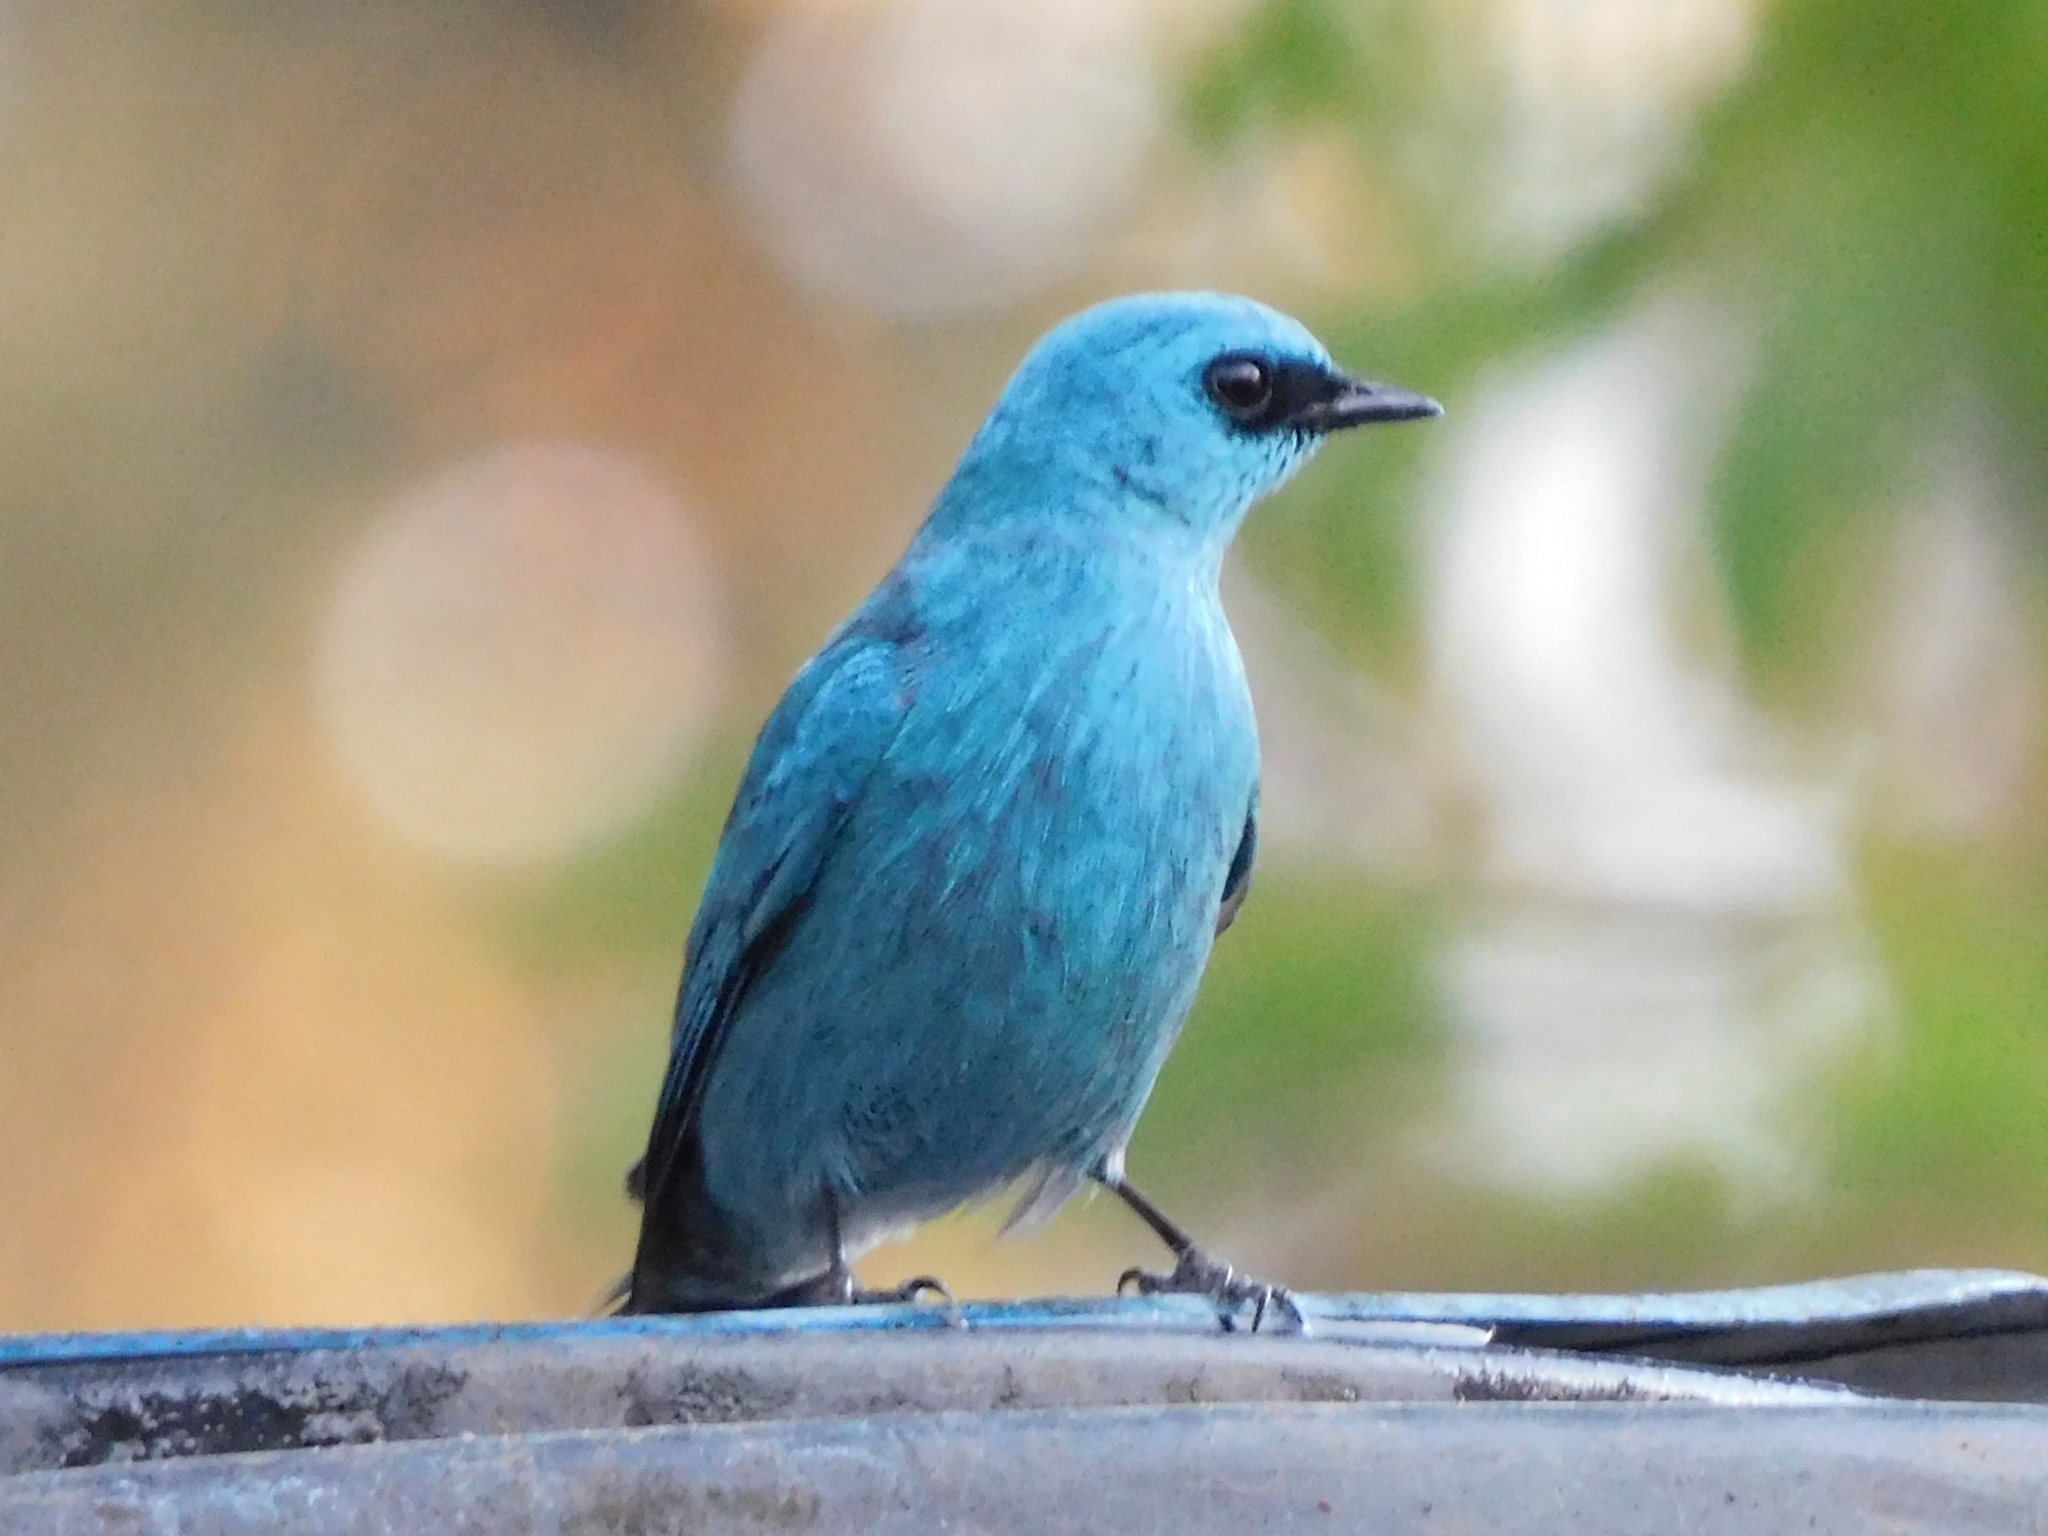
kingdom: Animalia
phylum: Chordata
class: Aves
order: Passeriformes
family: Muscicapidae
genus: Eumyias
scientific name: Eumyias thalassinus
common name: Verditer flycatcher
